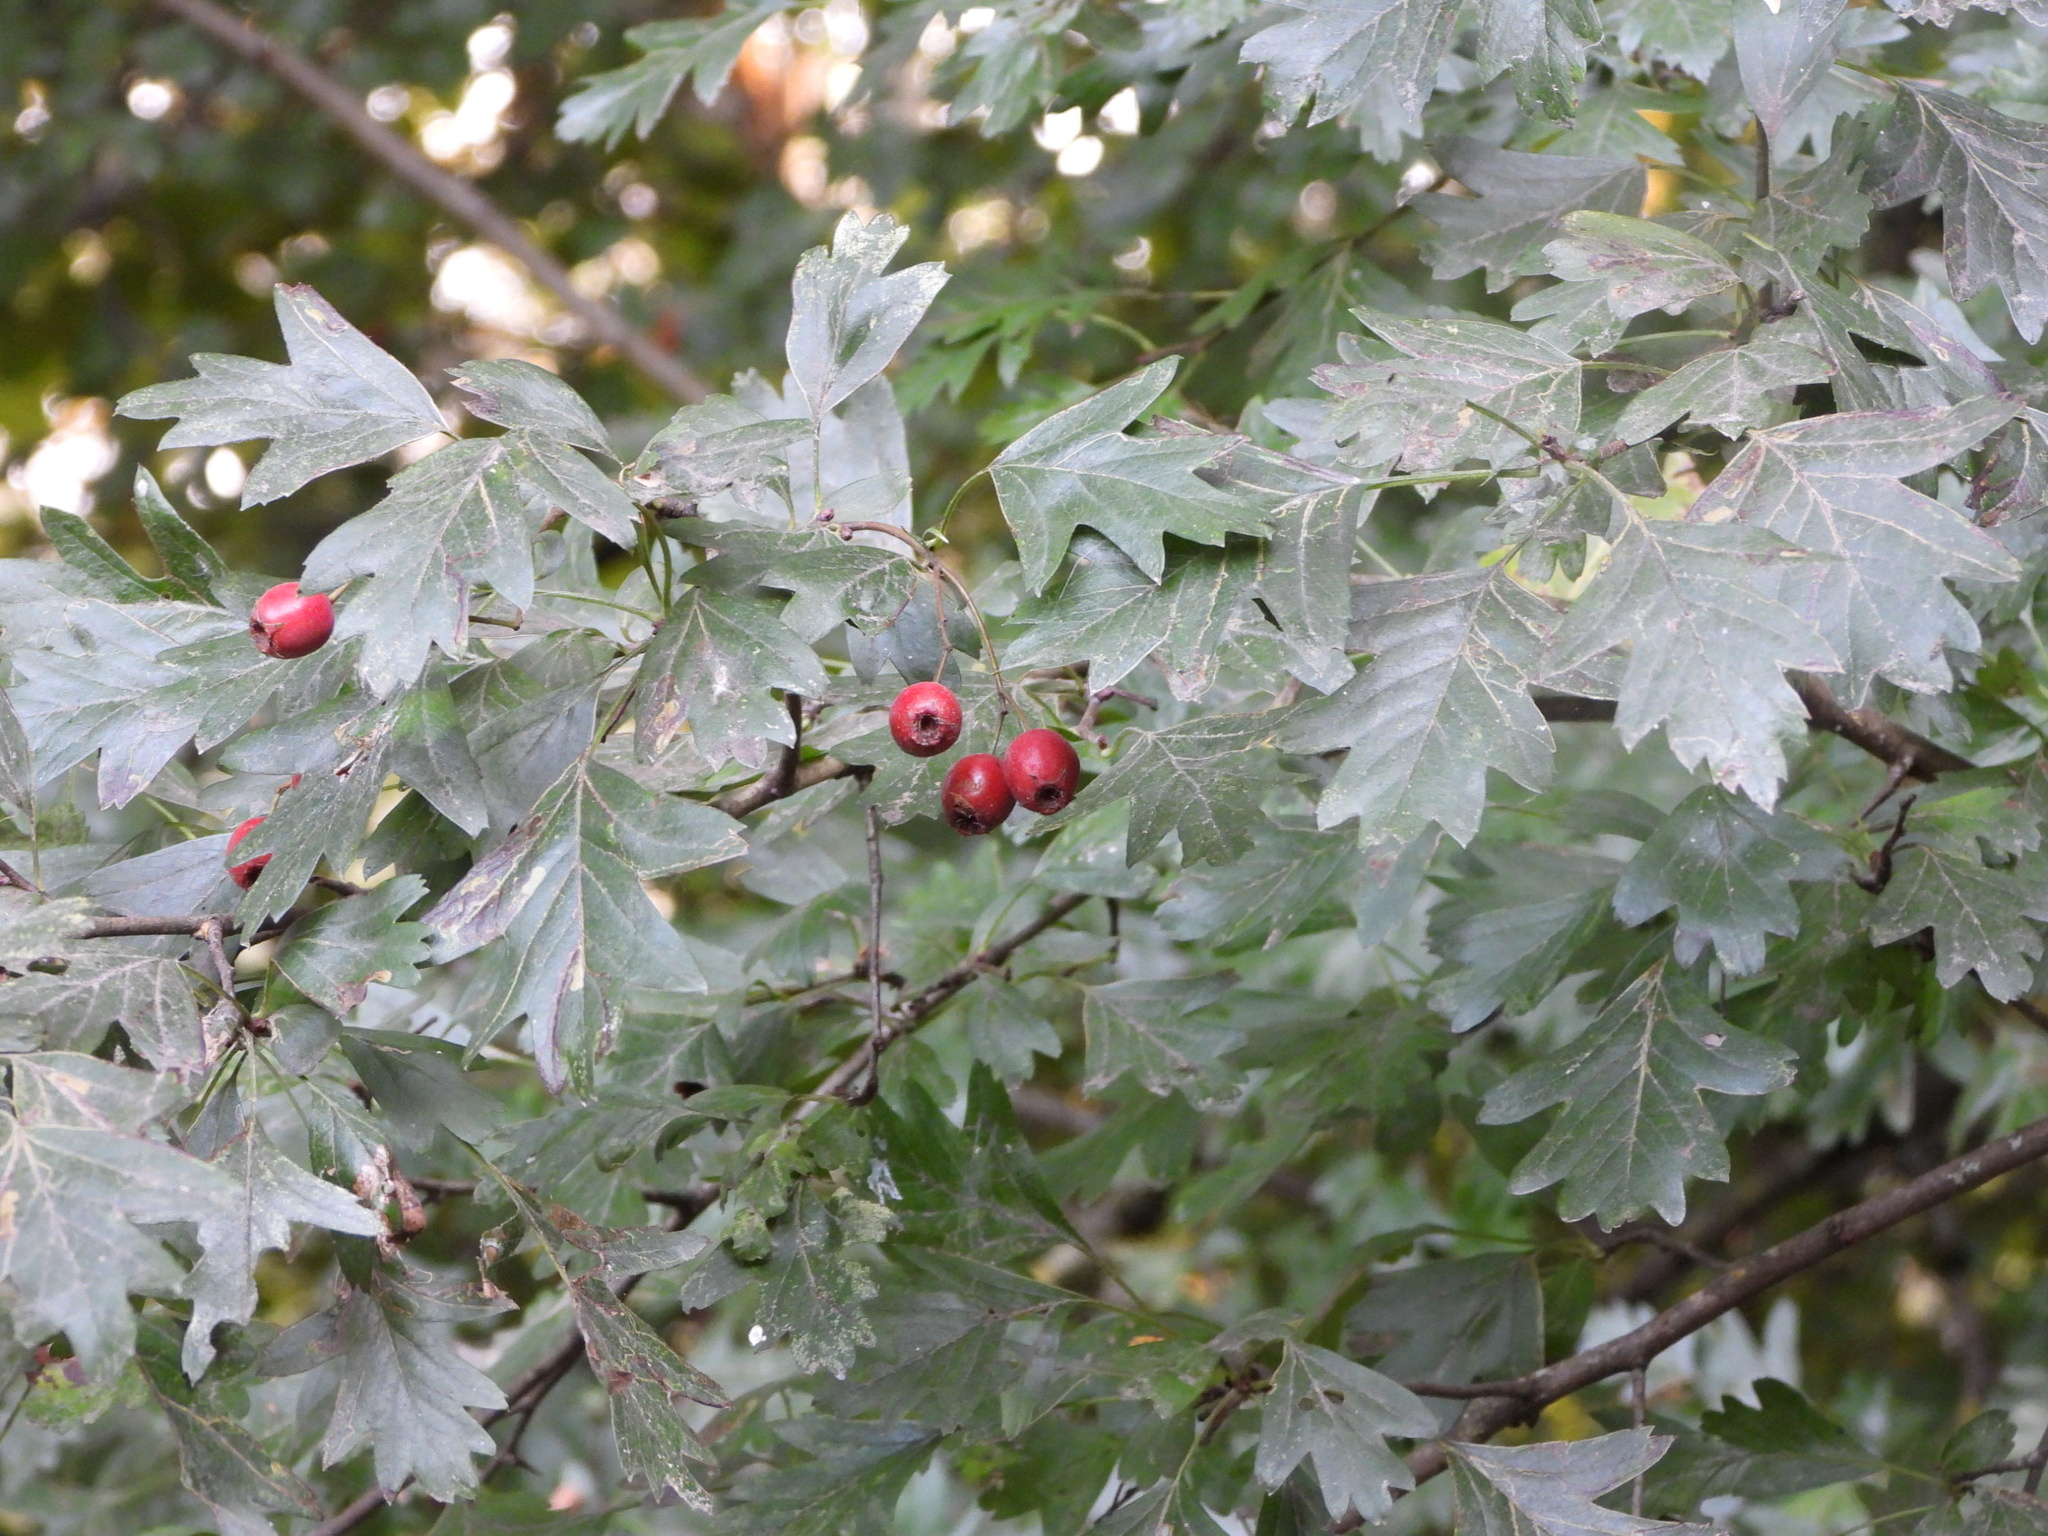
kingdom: Plantae
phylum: Tracheophyta
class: Magnoliopsida
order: Rosales
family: Rosaceae
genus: Crataegus
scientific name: Crataegus monogyna
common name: Hawthorn
